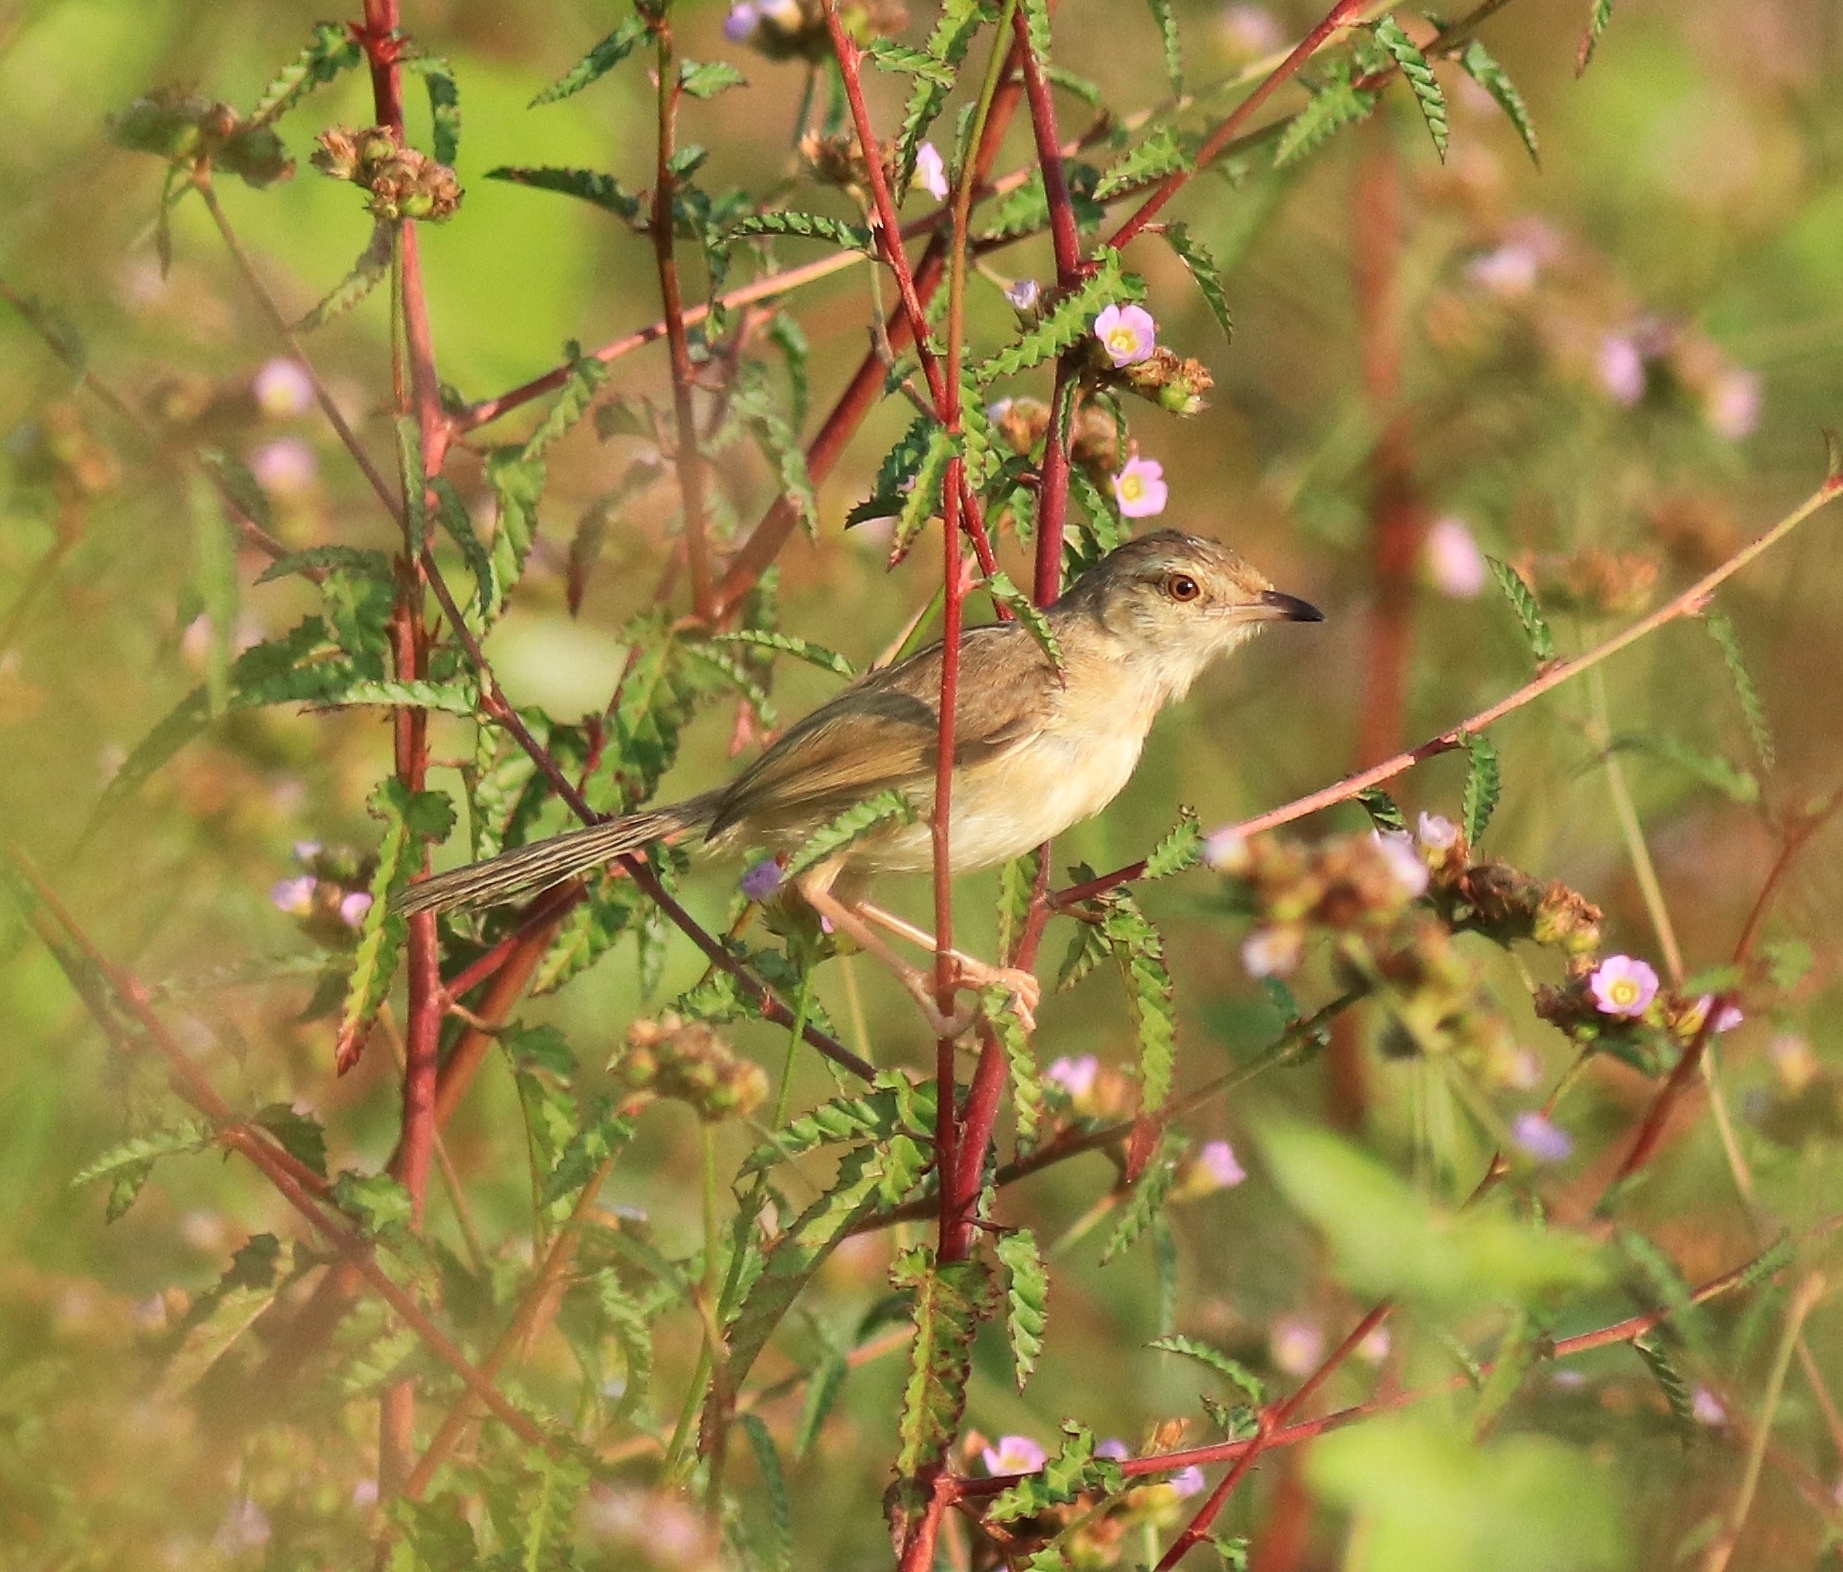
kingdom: Animalia
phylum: Chordata
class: Aves
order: Passeriformes
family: Cisticolidae
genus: Prinia
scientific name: Prinia inornata
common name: Plain prinia
